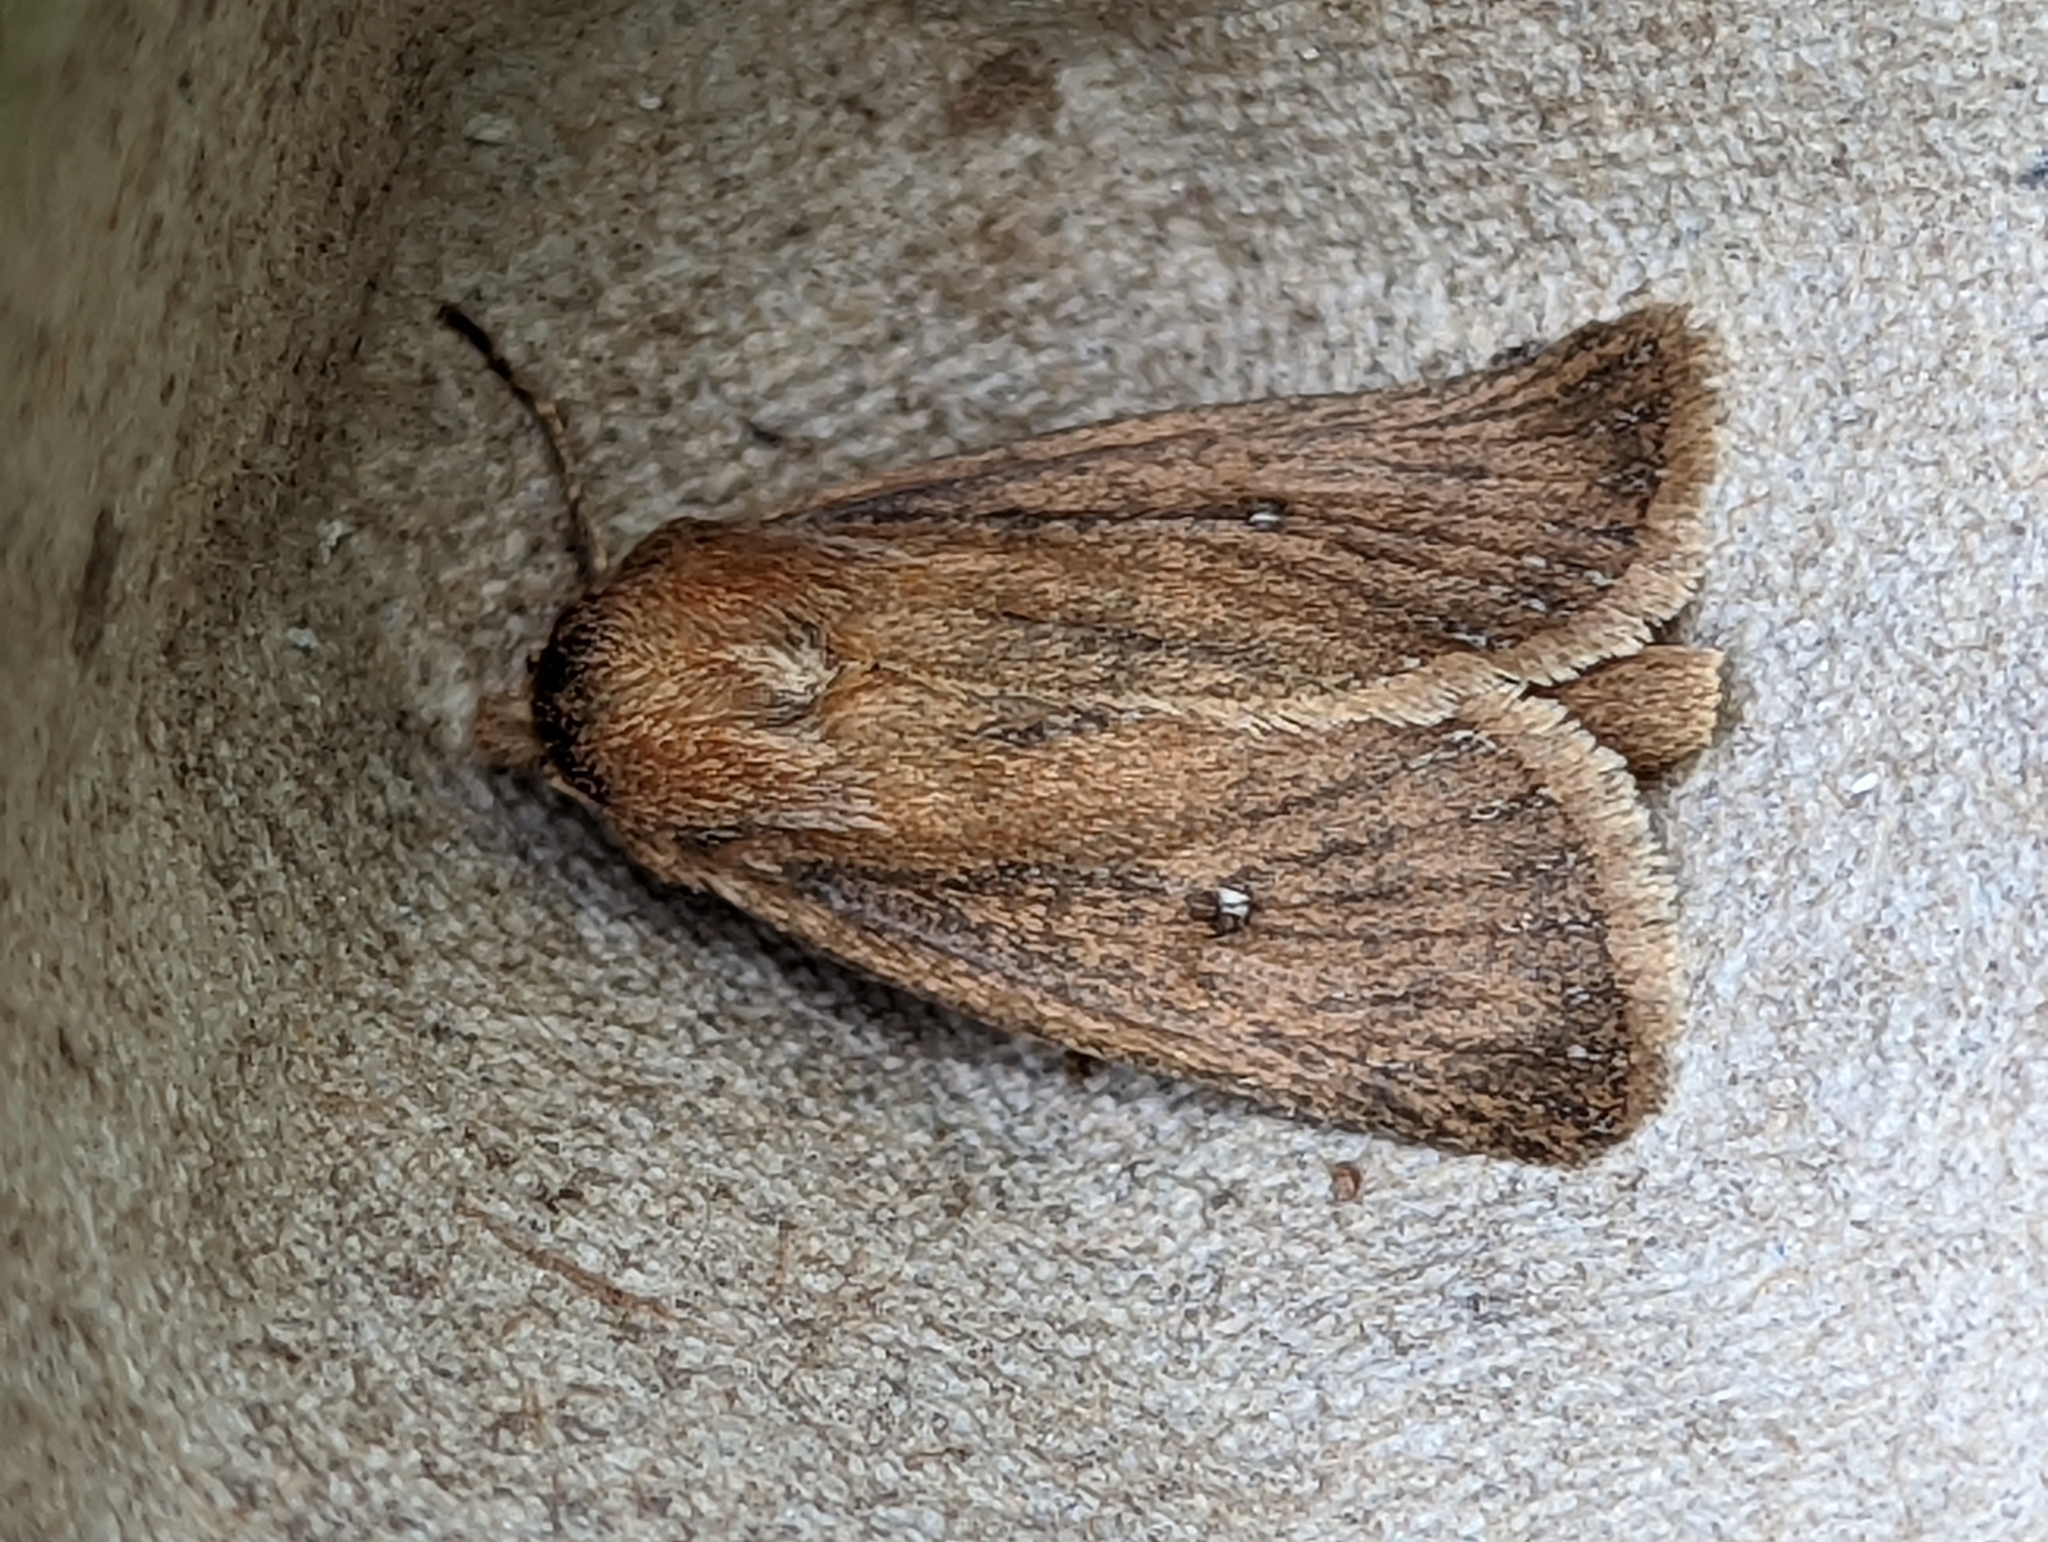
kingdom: Animalia
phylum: Arthropoda
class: Insecta
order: Lepidoptera
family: Noctuidae
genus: Lenisa
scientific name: Lenisa geminipuncta
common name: Twin-spotted wainscot
